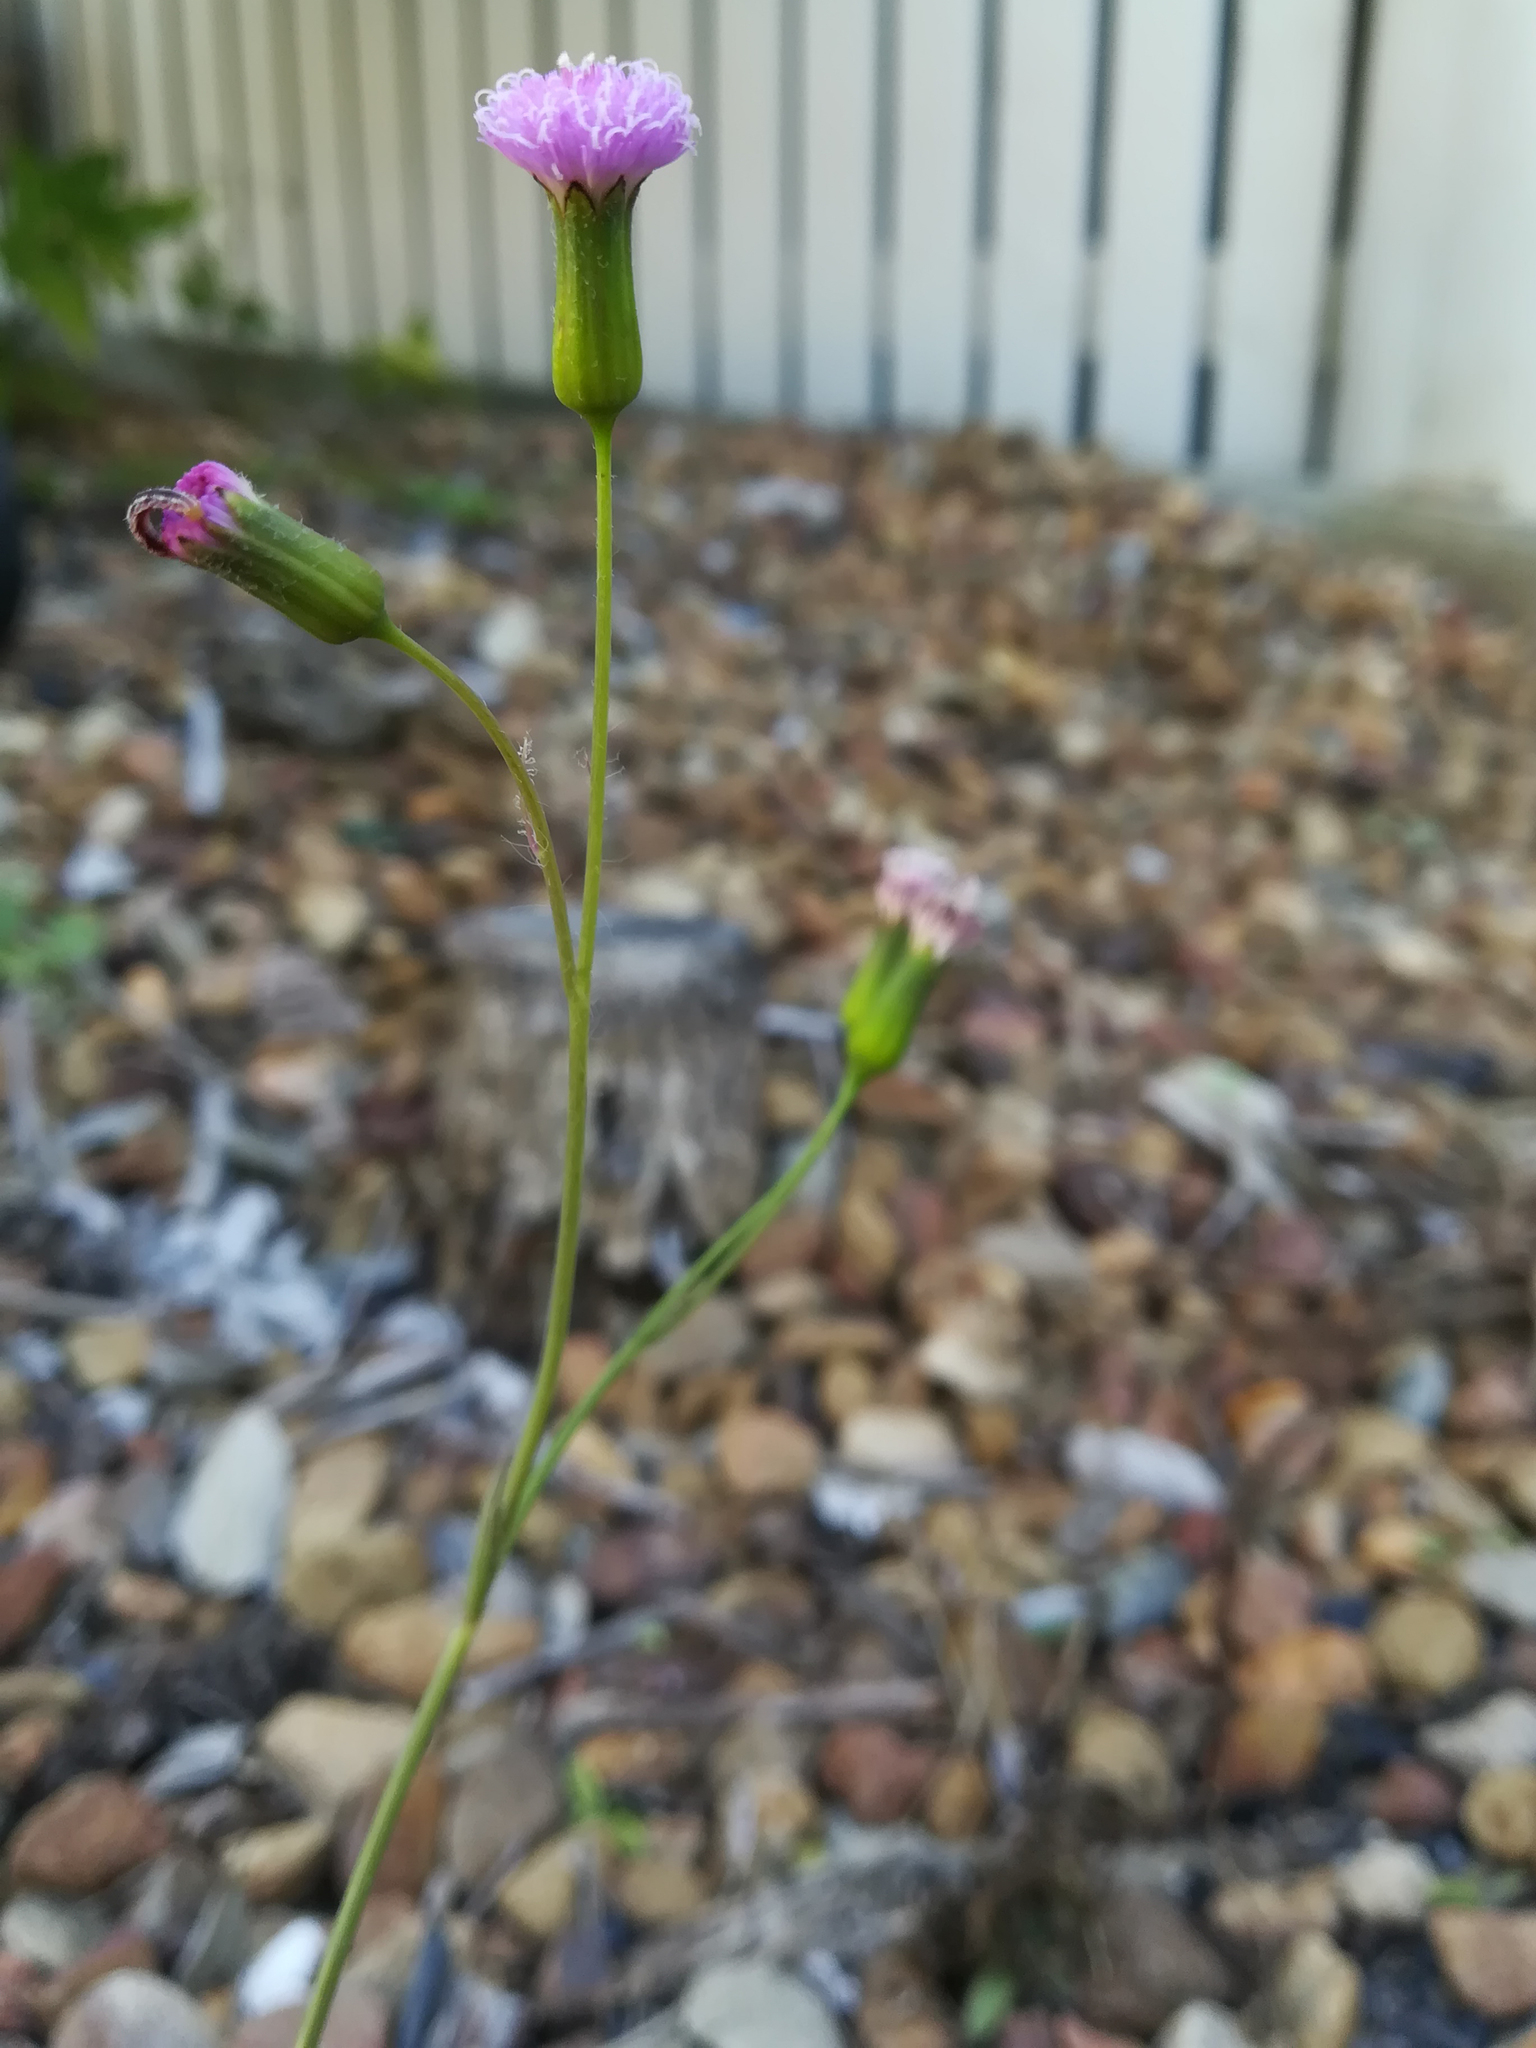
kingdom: Plantae
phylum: Tracheophyta
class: Magnoliopsida
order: Asterales
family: Asteraceae
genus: Emilia
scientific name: Emilia javanica
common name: Tassel-flower
